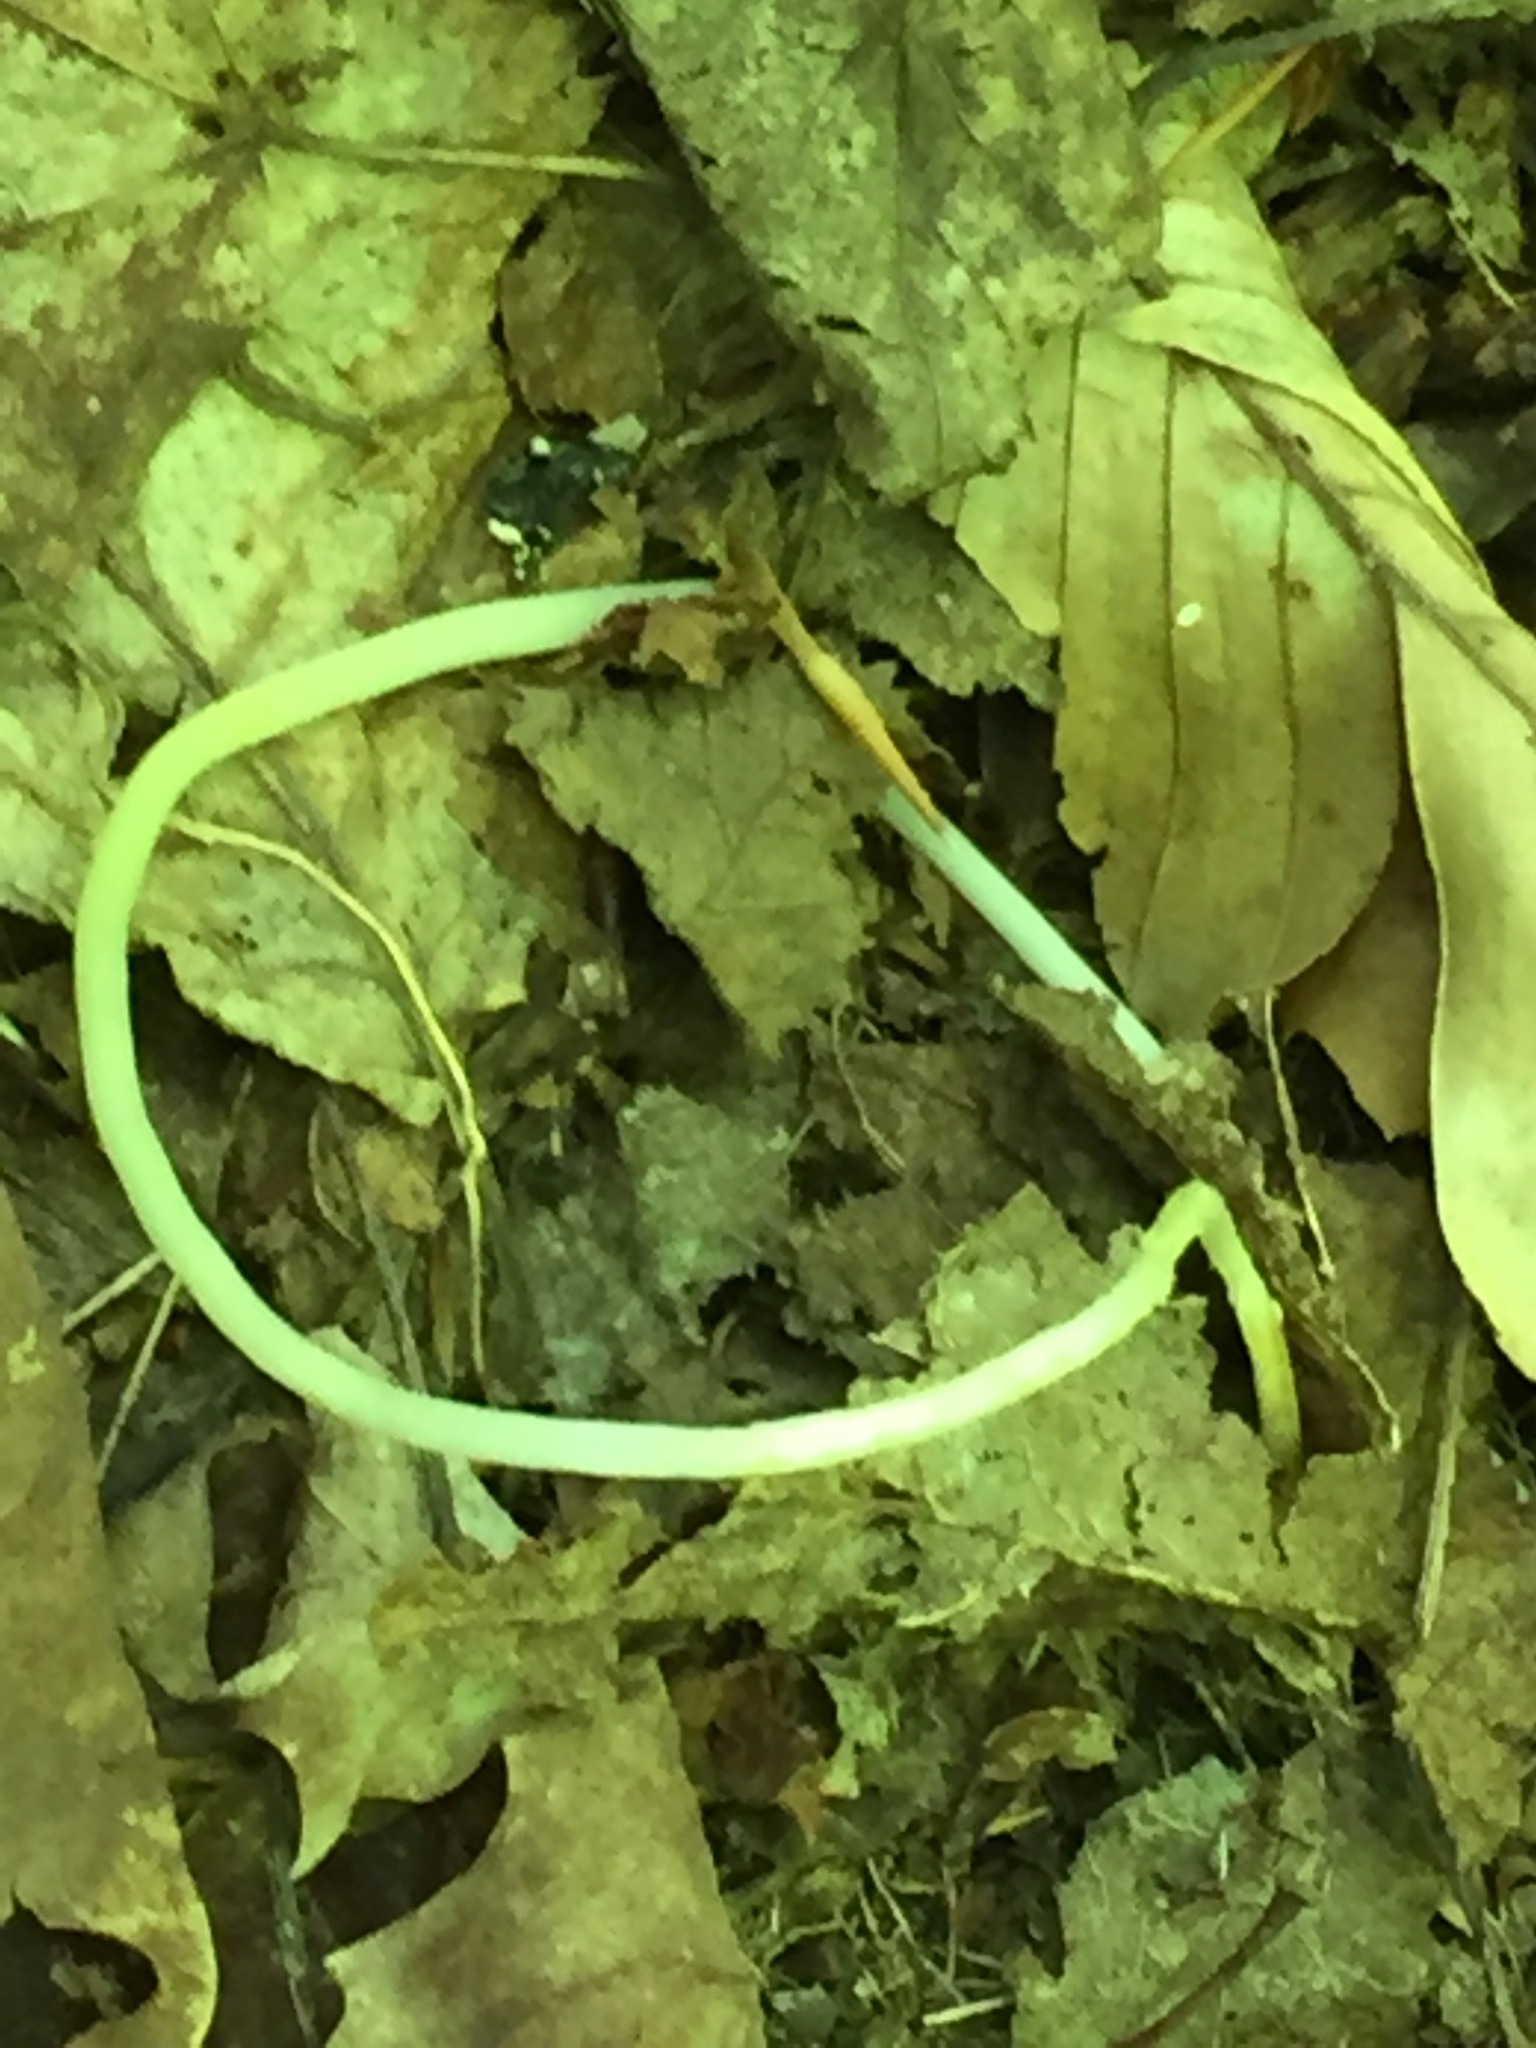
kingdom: Plantae
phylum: Tracheophyta
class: Liliopsida
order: Liliales
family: Liliaceae
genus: Erythronium
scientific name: Erythronium americanum
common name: Yellow adder's-tongue
